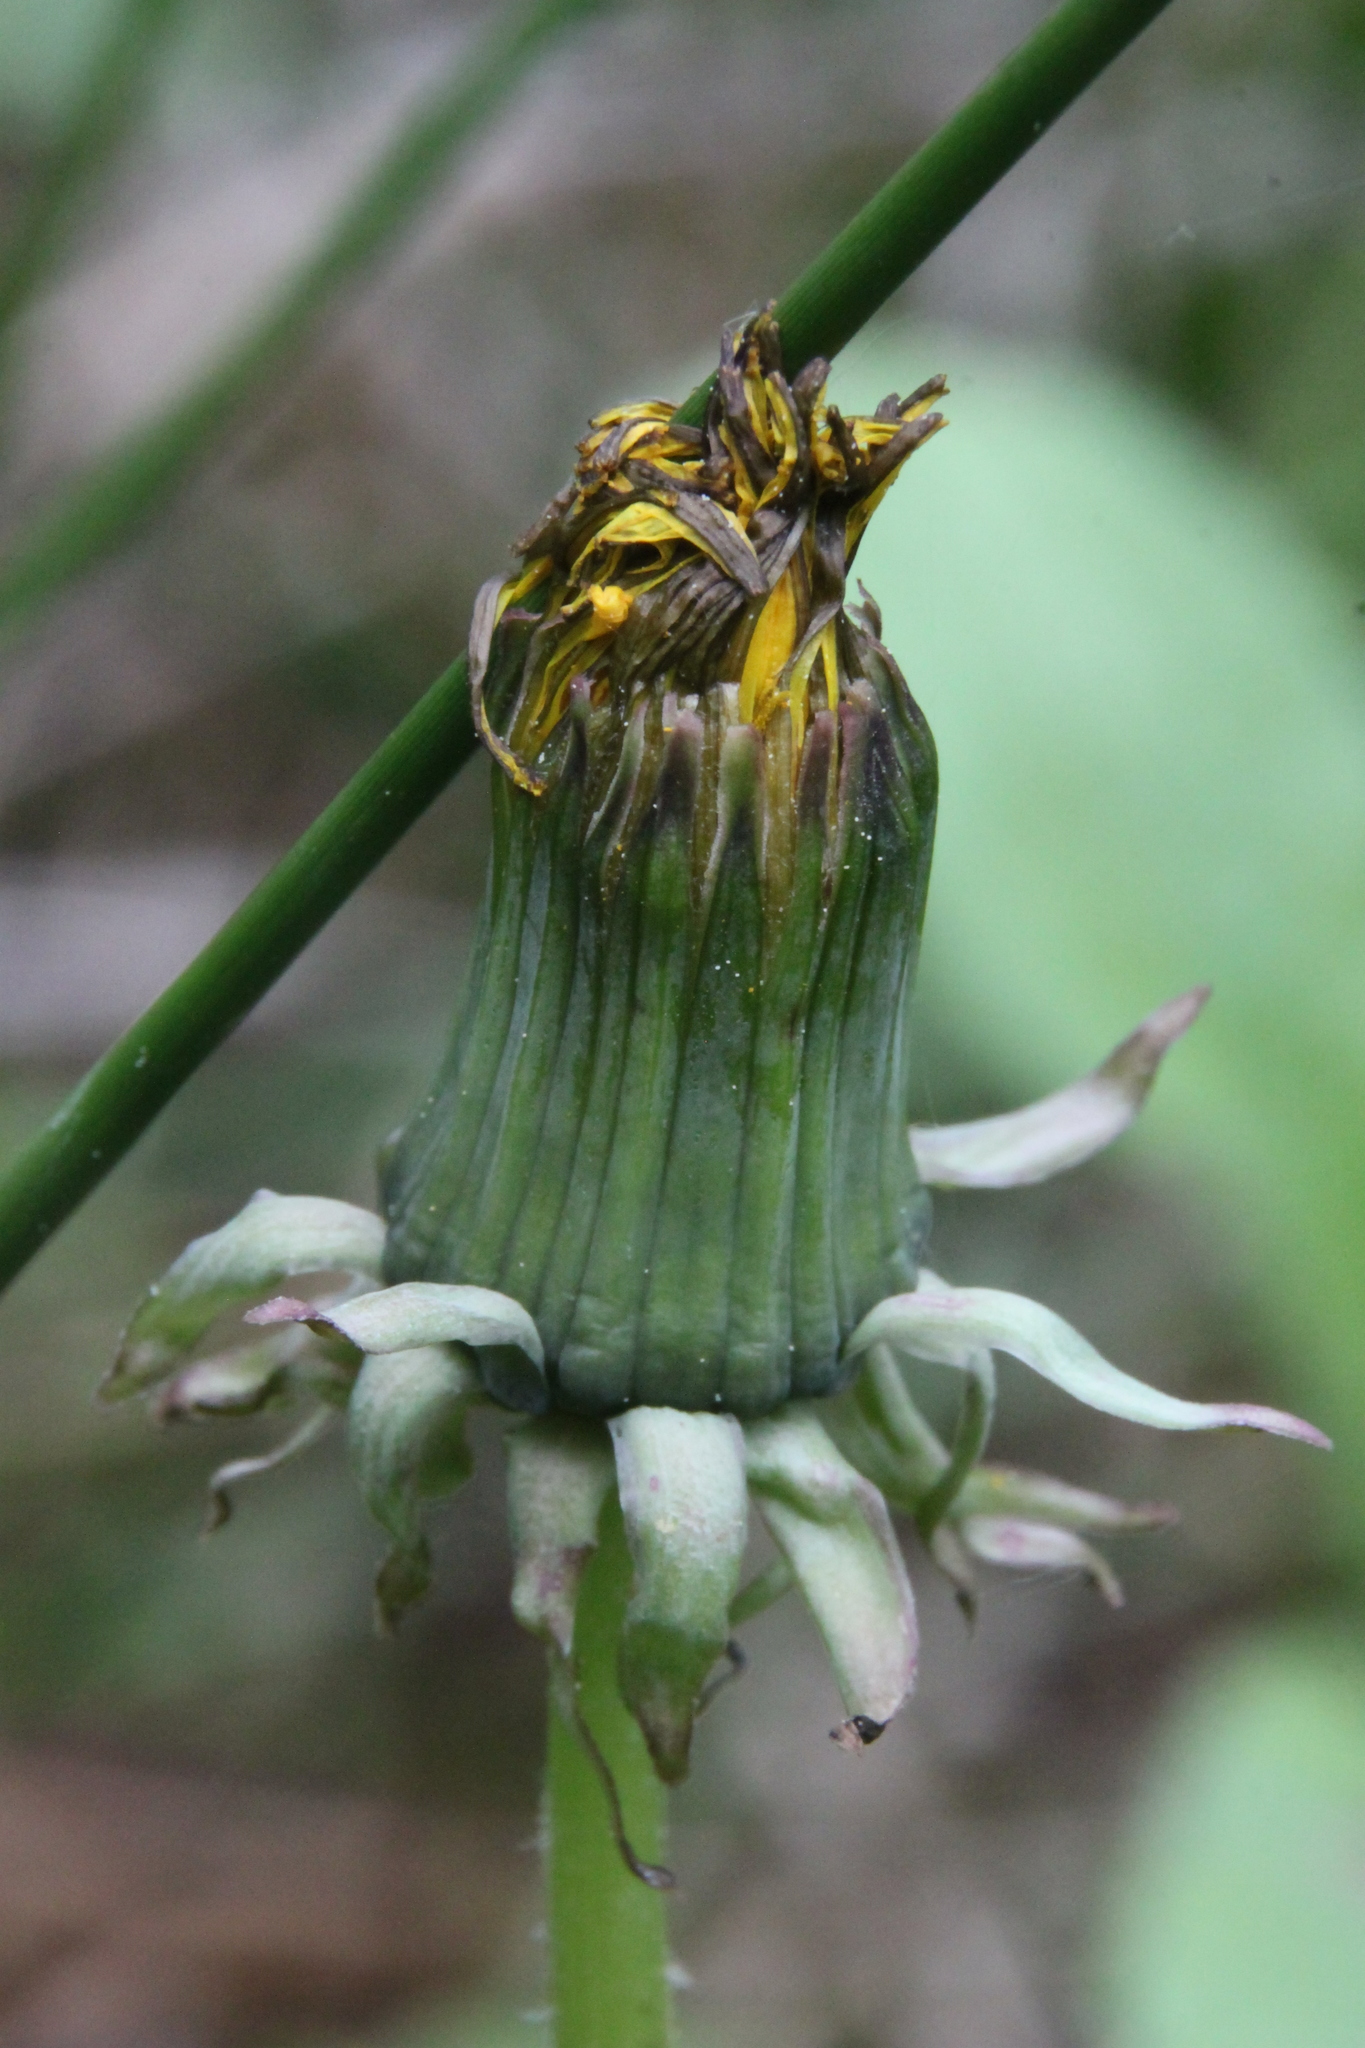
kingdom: Plantae
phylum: Tracheophyta
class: Magnoliopsida
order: Asterales
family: Asteraceae
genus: Taraxacum
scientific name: Taraxacum officinale
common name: Common dandelion
